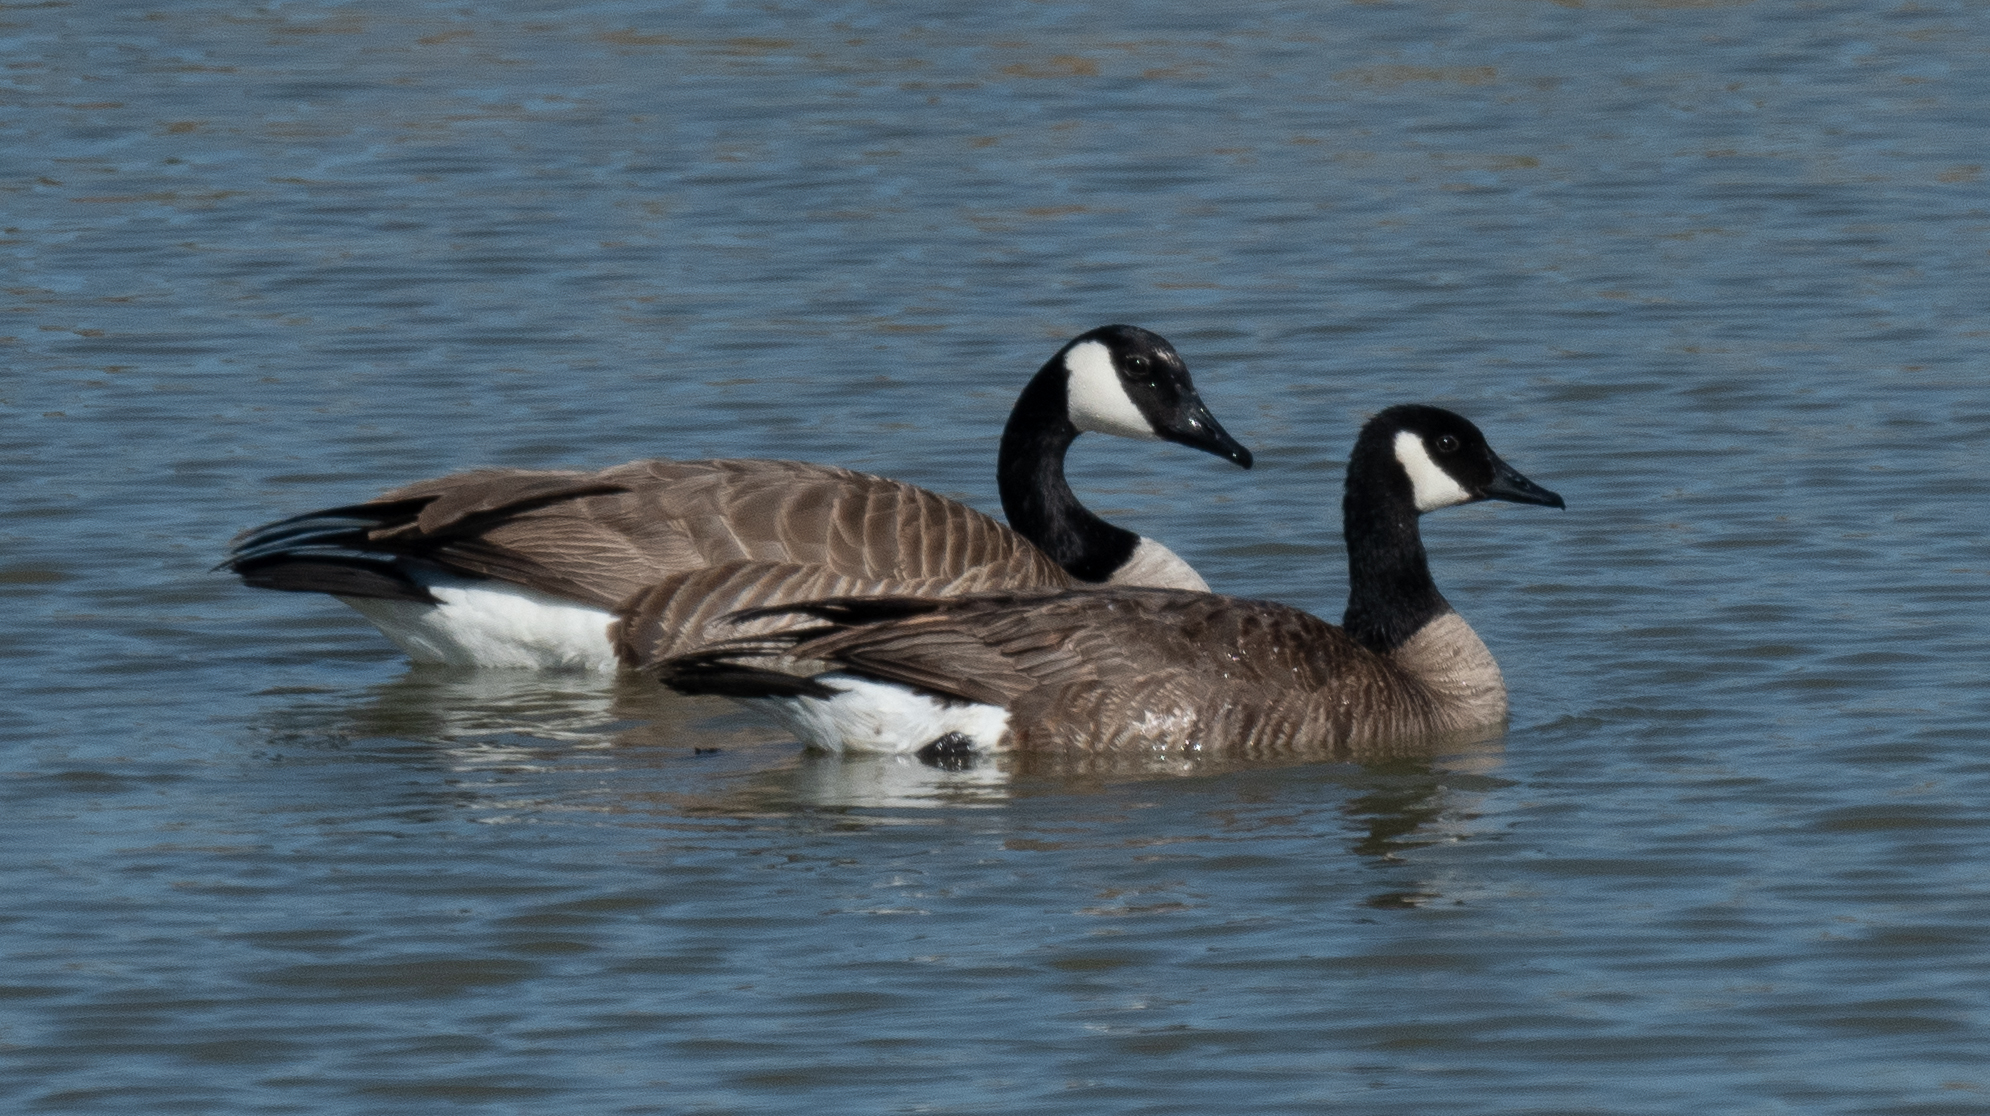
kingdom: Animalia
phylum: Chordata
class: Aves
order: Anseriformes
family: Anatidae
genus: Branta
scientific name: Branta canadensis
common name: Canada goose
